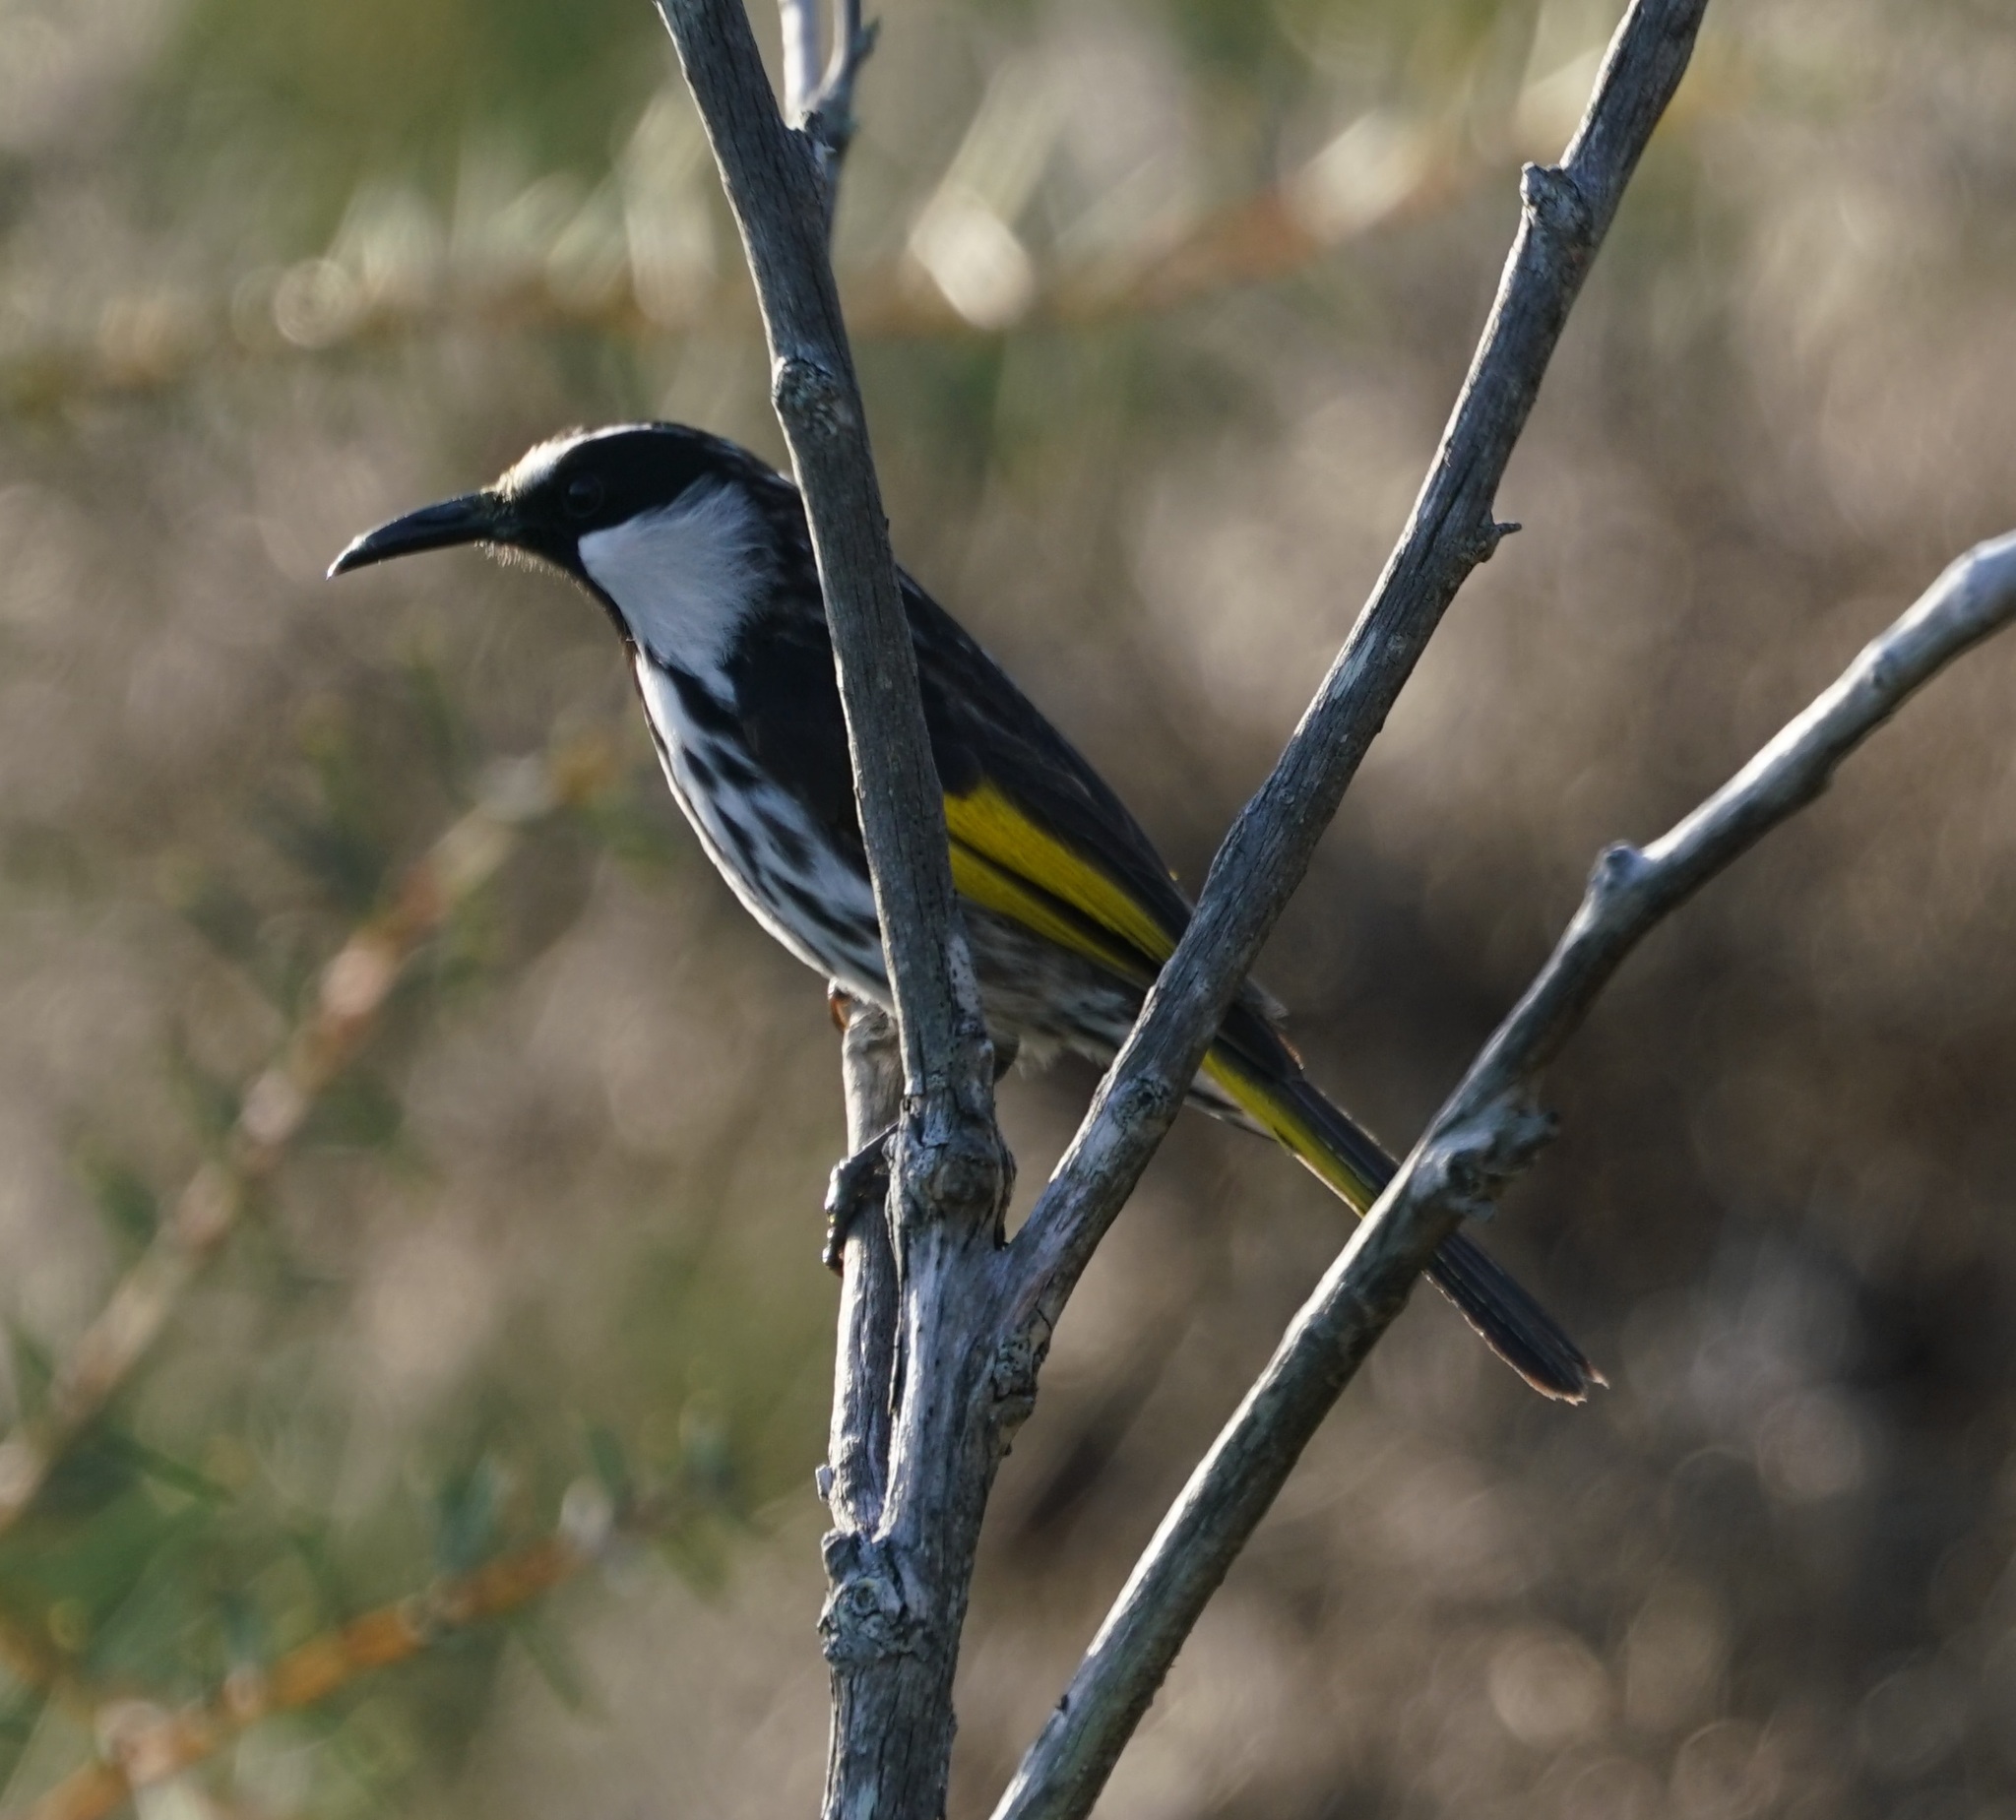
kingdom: Animalia
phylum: Chordata
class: Aves
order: Passeriformes
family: Meliphagidae
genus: Phylidonyris
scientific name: Phylidonyris niger
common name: White-cheeked honeyeater
